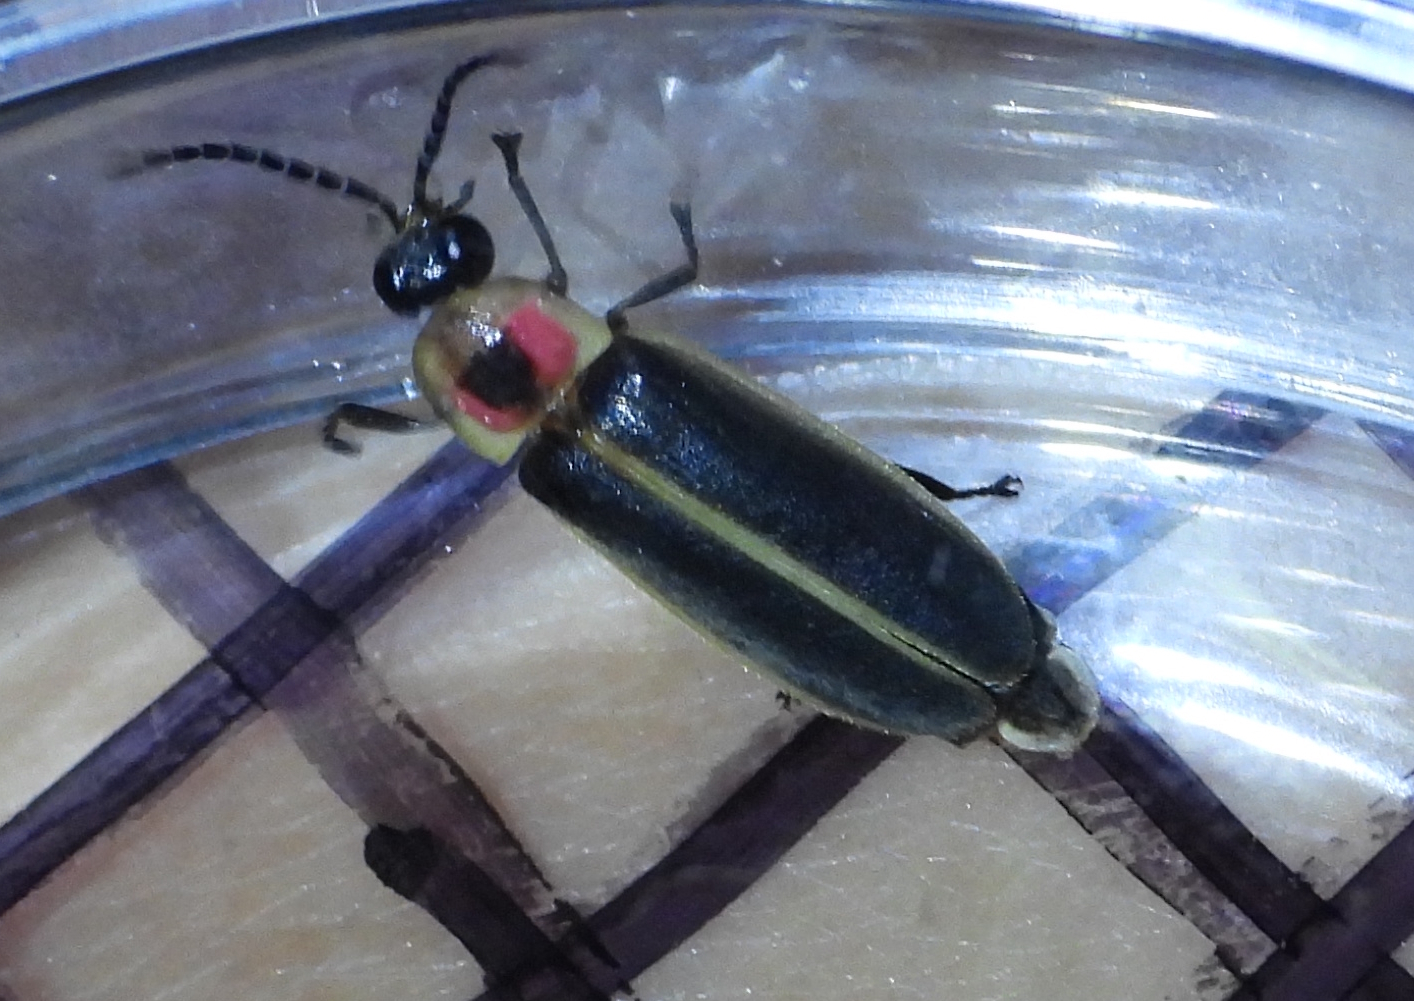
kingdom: Animalia
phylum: Arthropoda
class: Insecta
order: Coleoptera
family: Lampyridae
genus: Photinus
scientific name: Photinus pyralis
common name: Big dipper firefly
